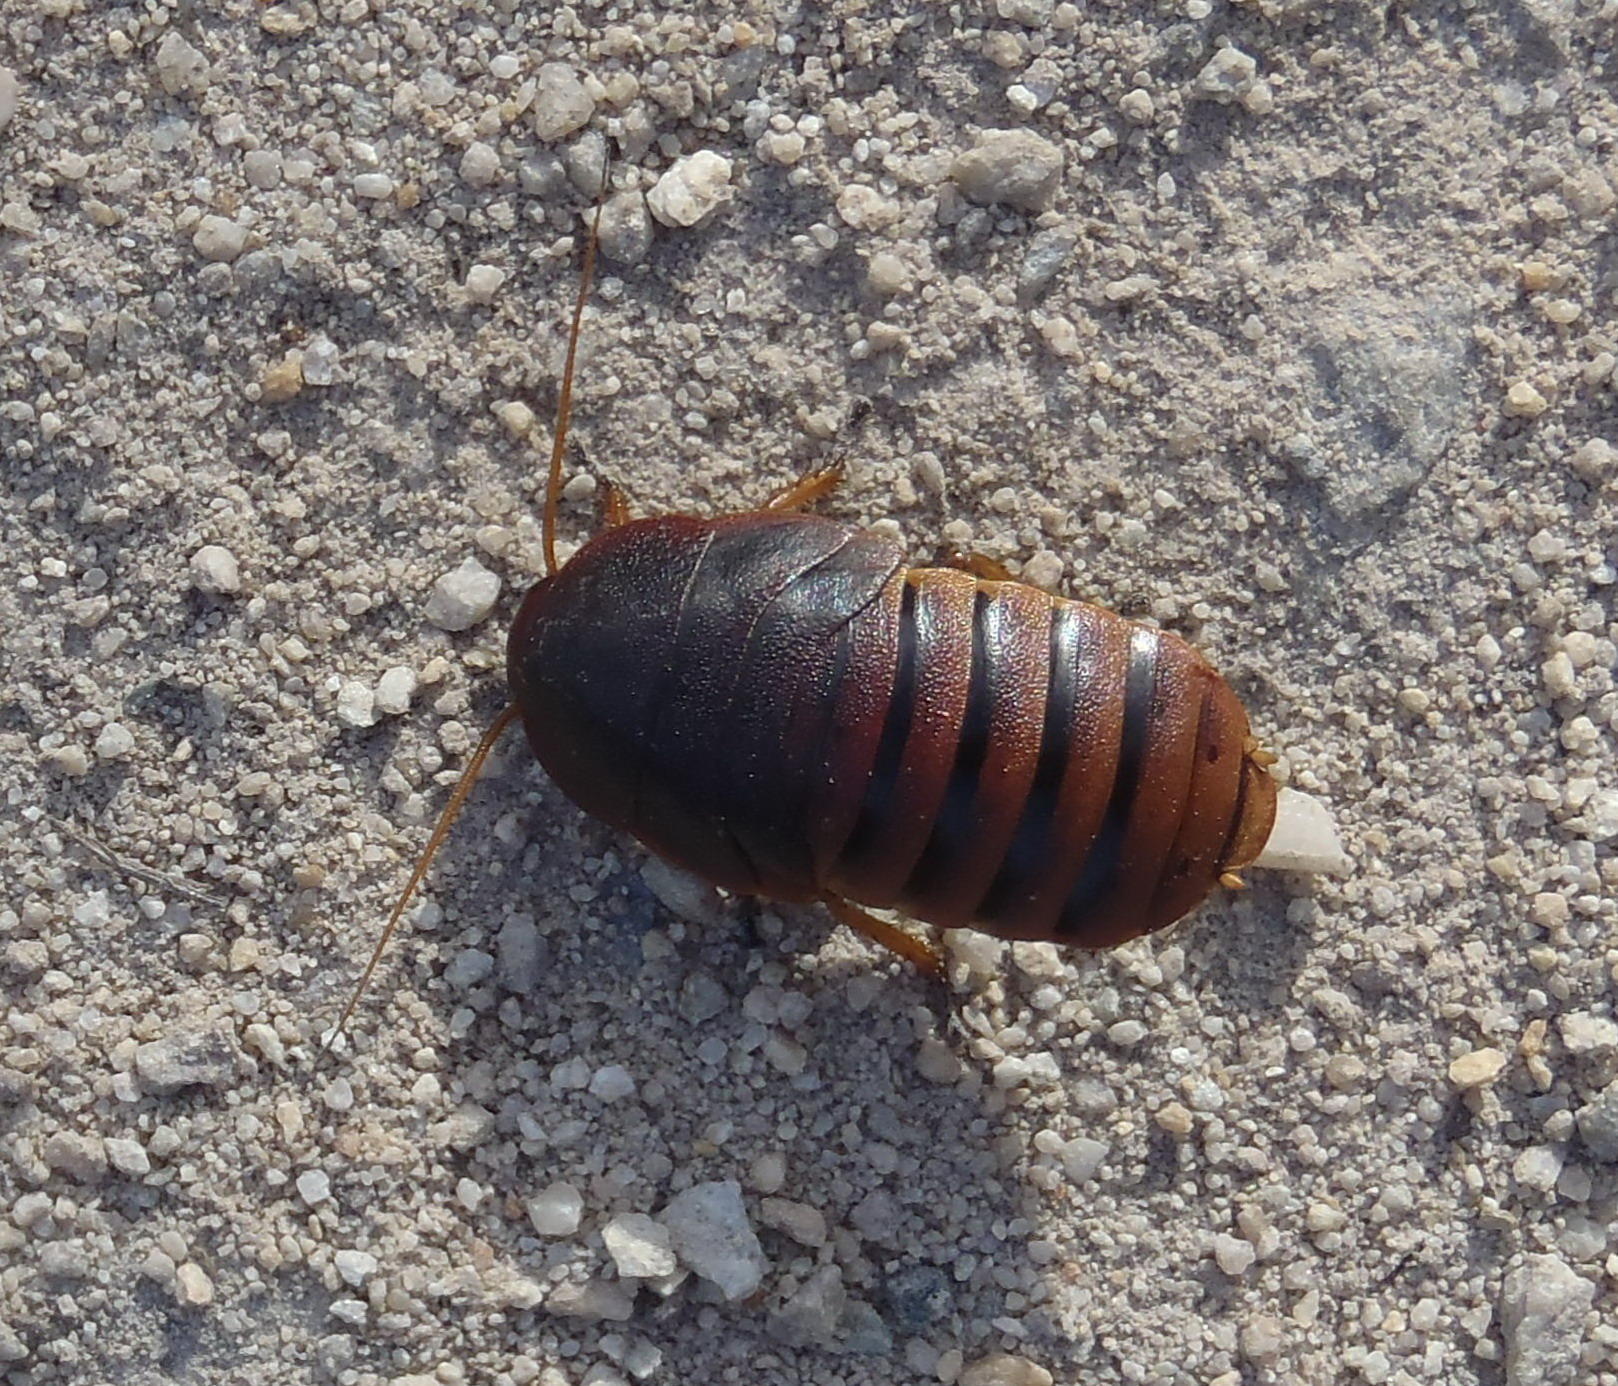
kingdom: Animalia
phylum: Arthropoda
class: Insecta
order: Blattodea
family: Blaberidae
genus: Aptera
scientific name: Aptera fusca
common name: Cape mountain cockroach
